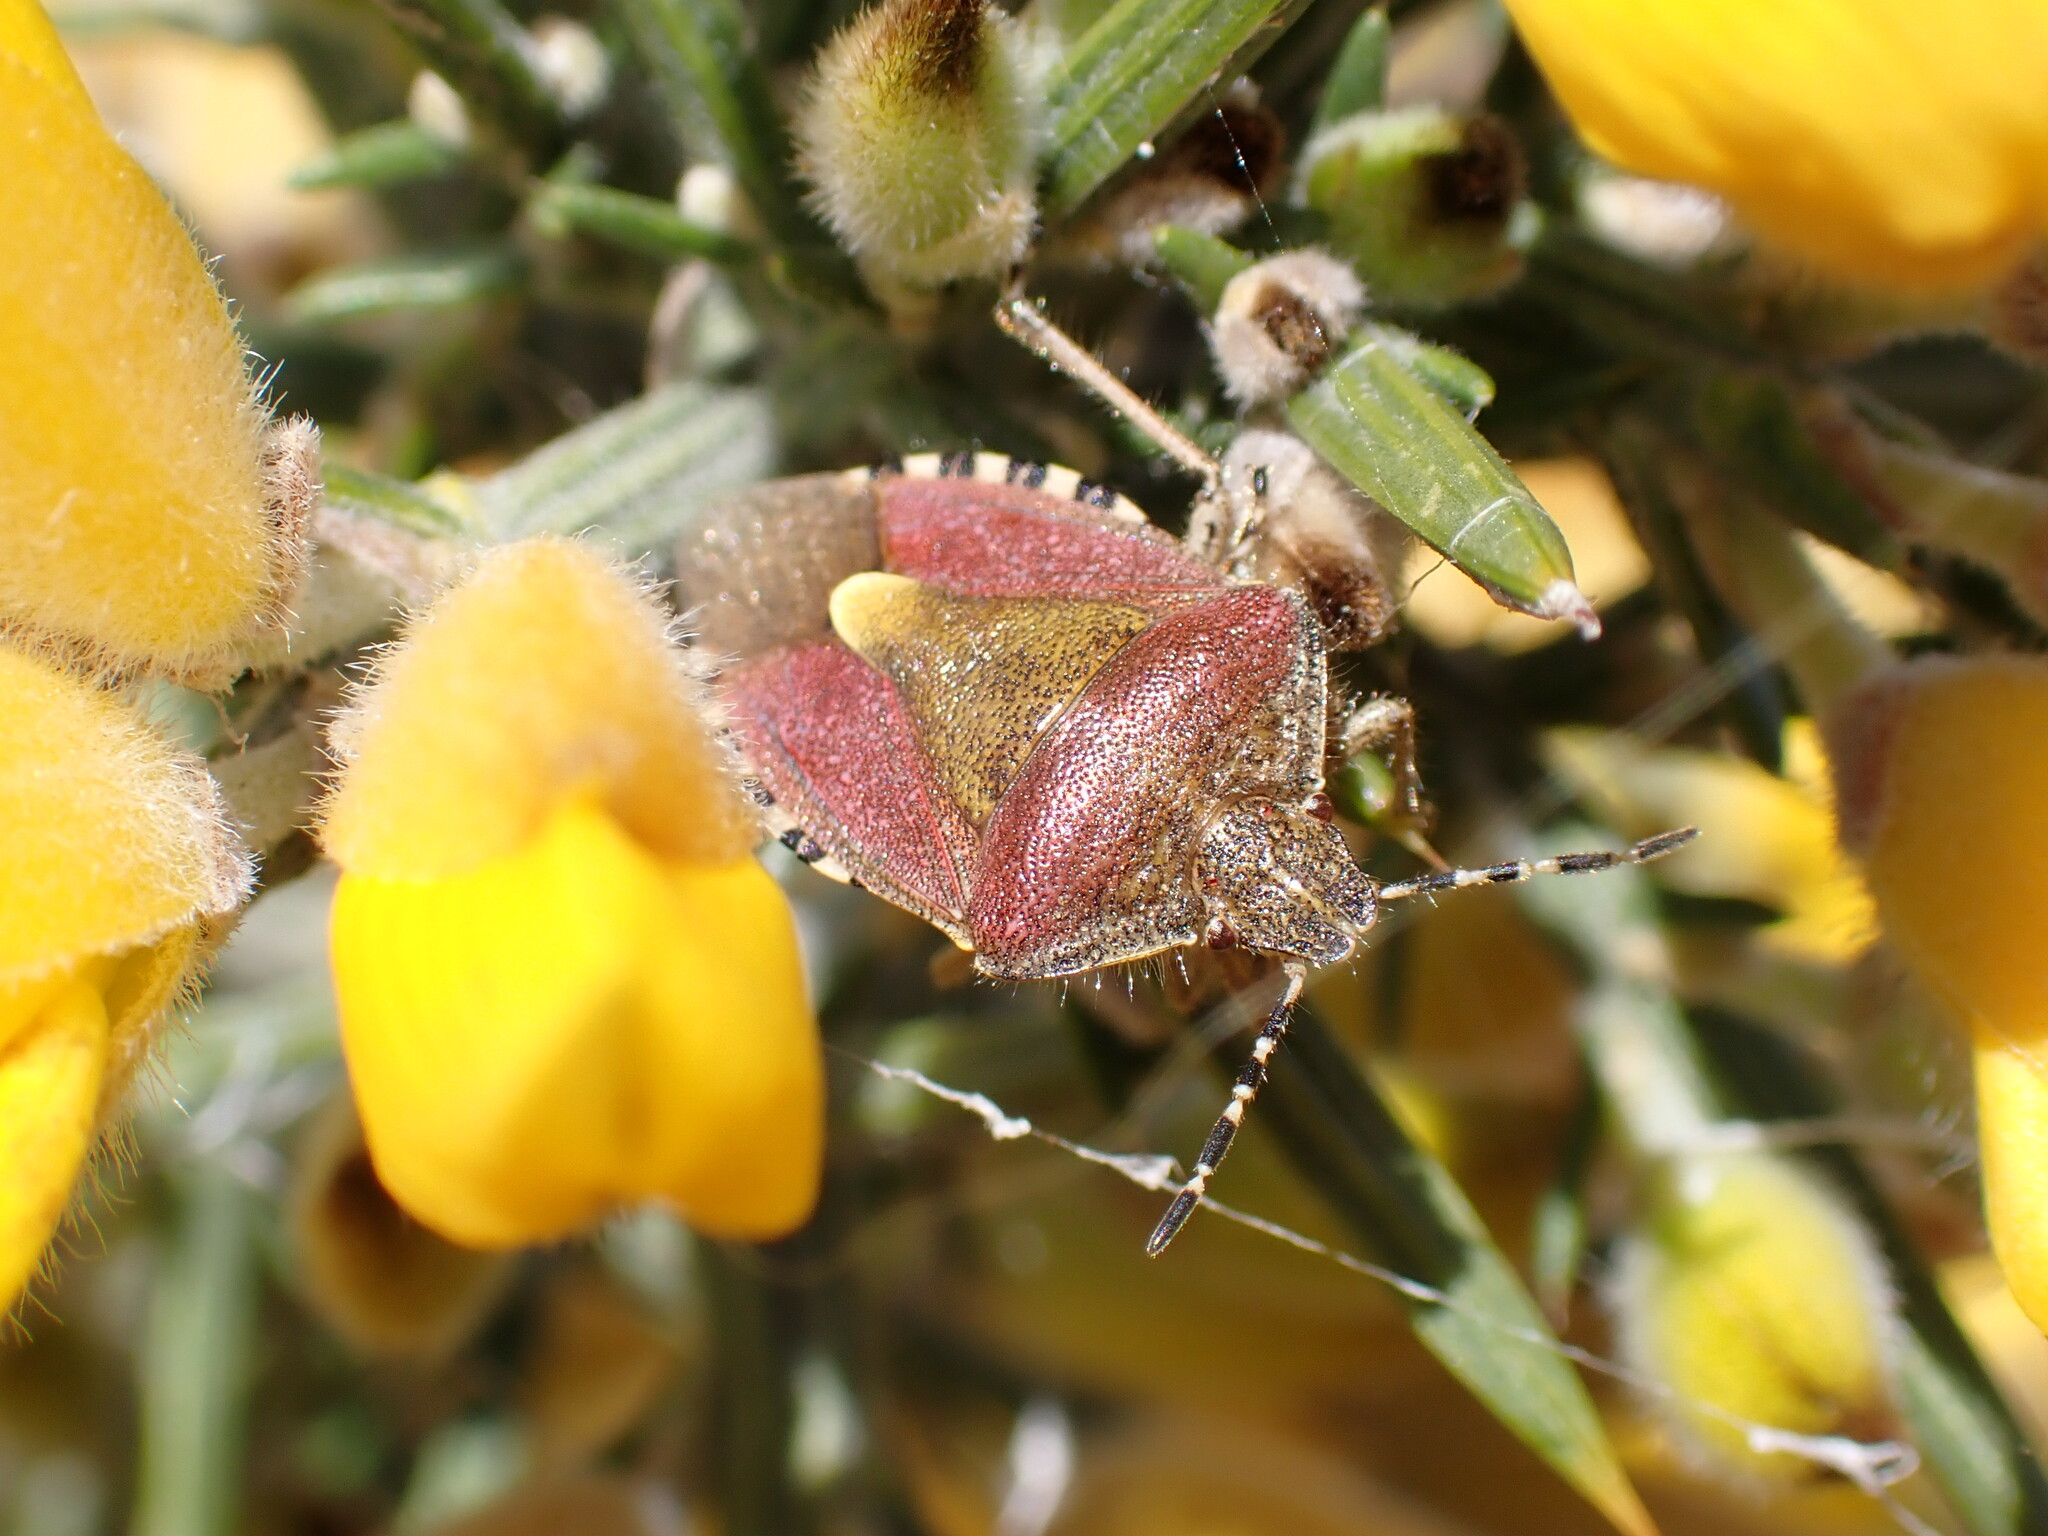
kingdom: Animalia
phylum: Arthropoda
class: Insecta
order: Hemiptera
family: Pentatomidae
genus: Dolycoris
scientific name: Dolycoris baccarum
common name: Sloe bug
